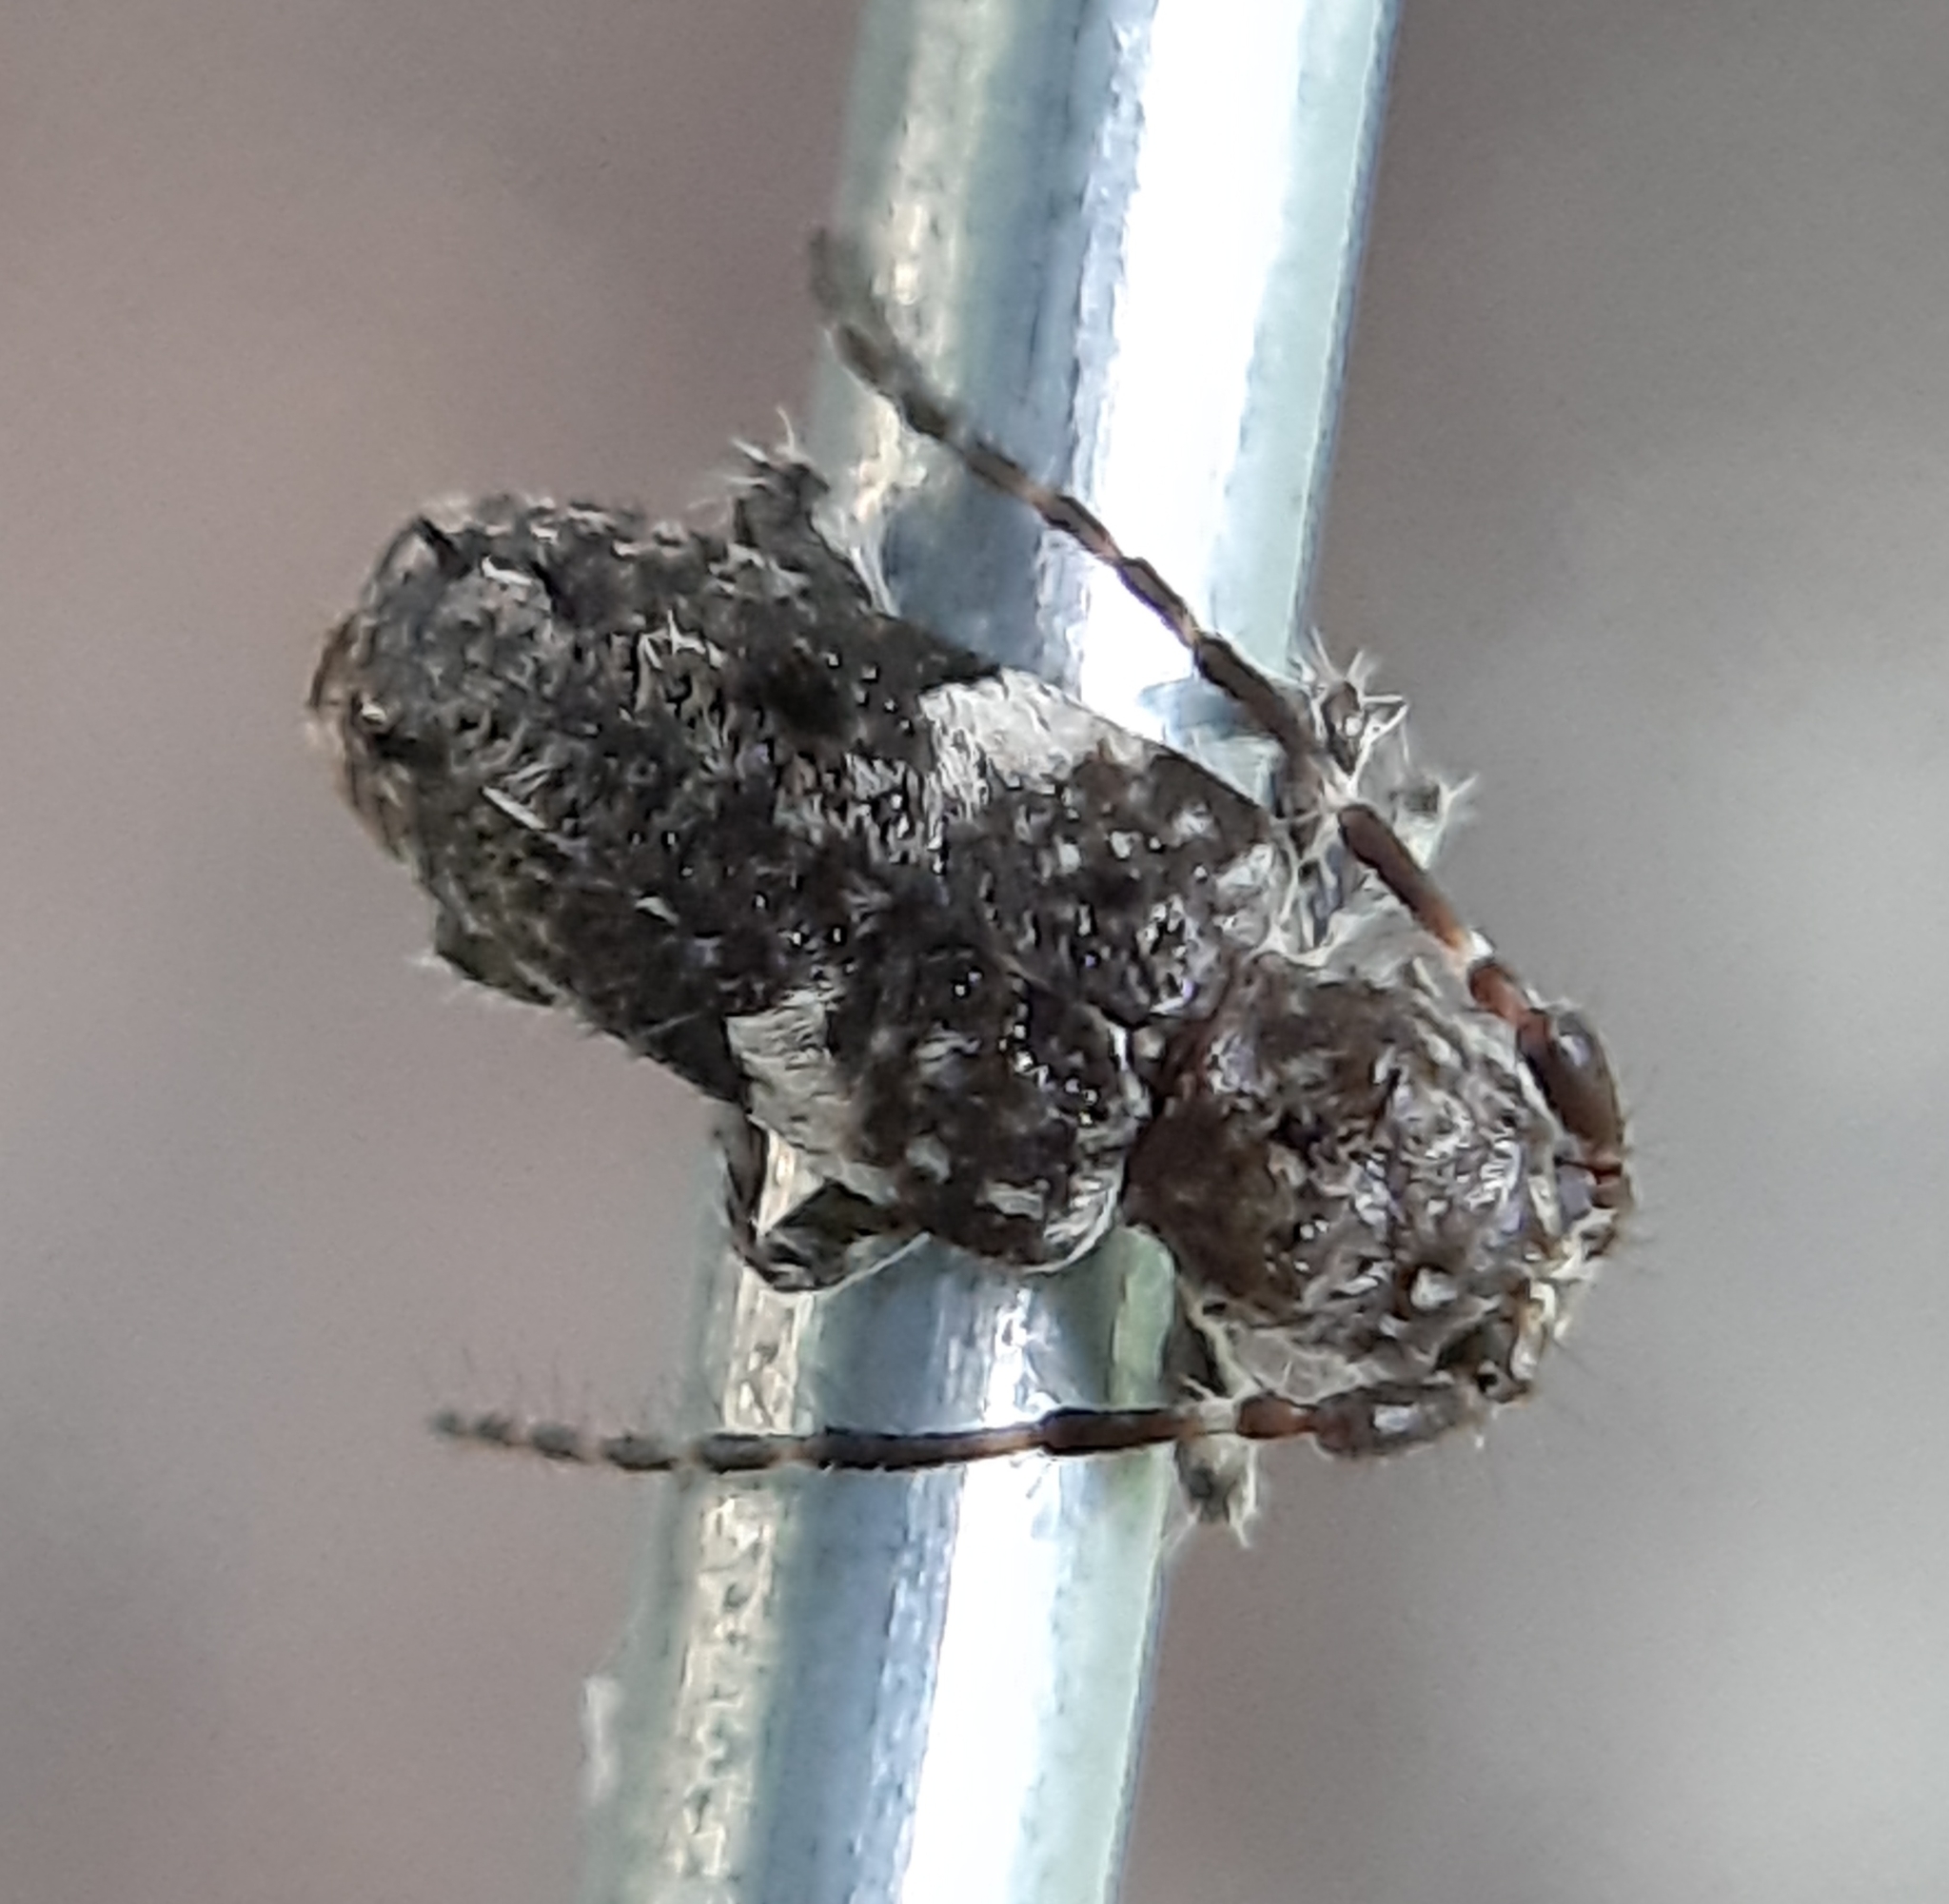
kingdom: Animalia
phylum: Arthropoda
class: Insecta
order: Coleoptera
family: Cerambycidae
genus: Pogonocherus
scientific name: Pogonocherus penicillatus
